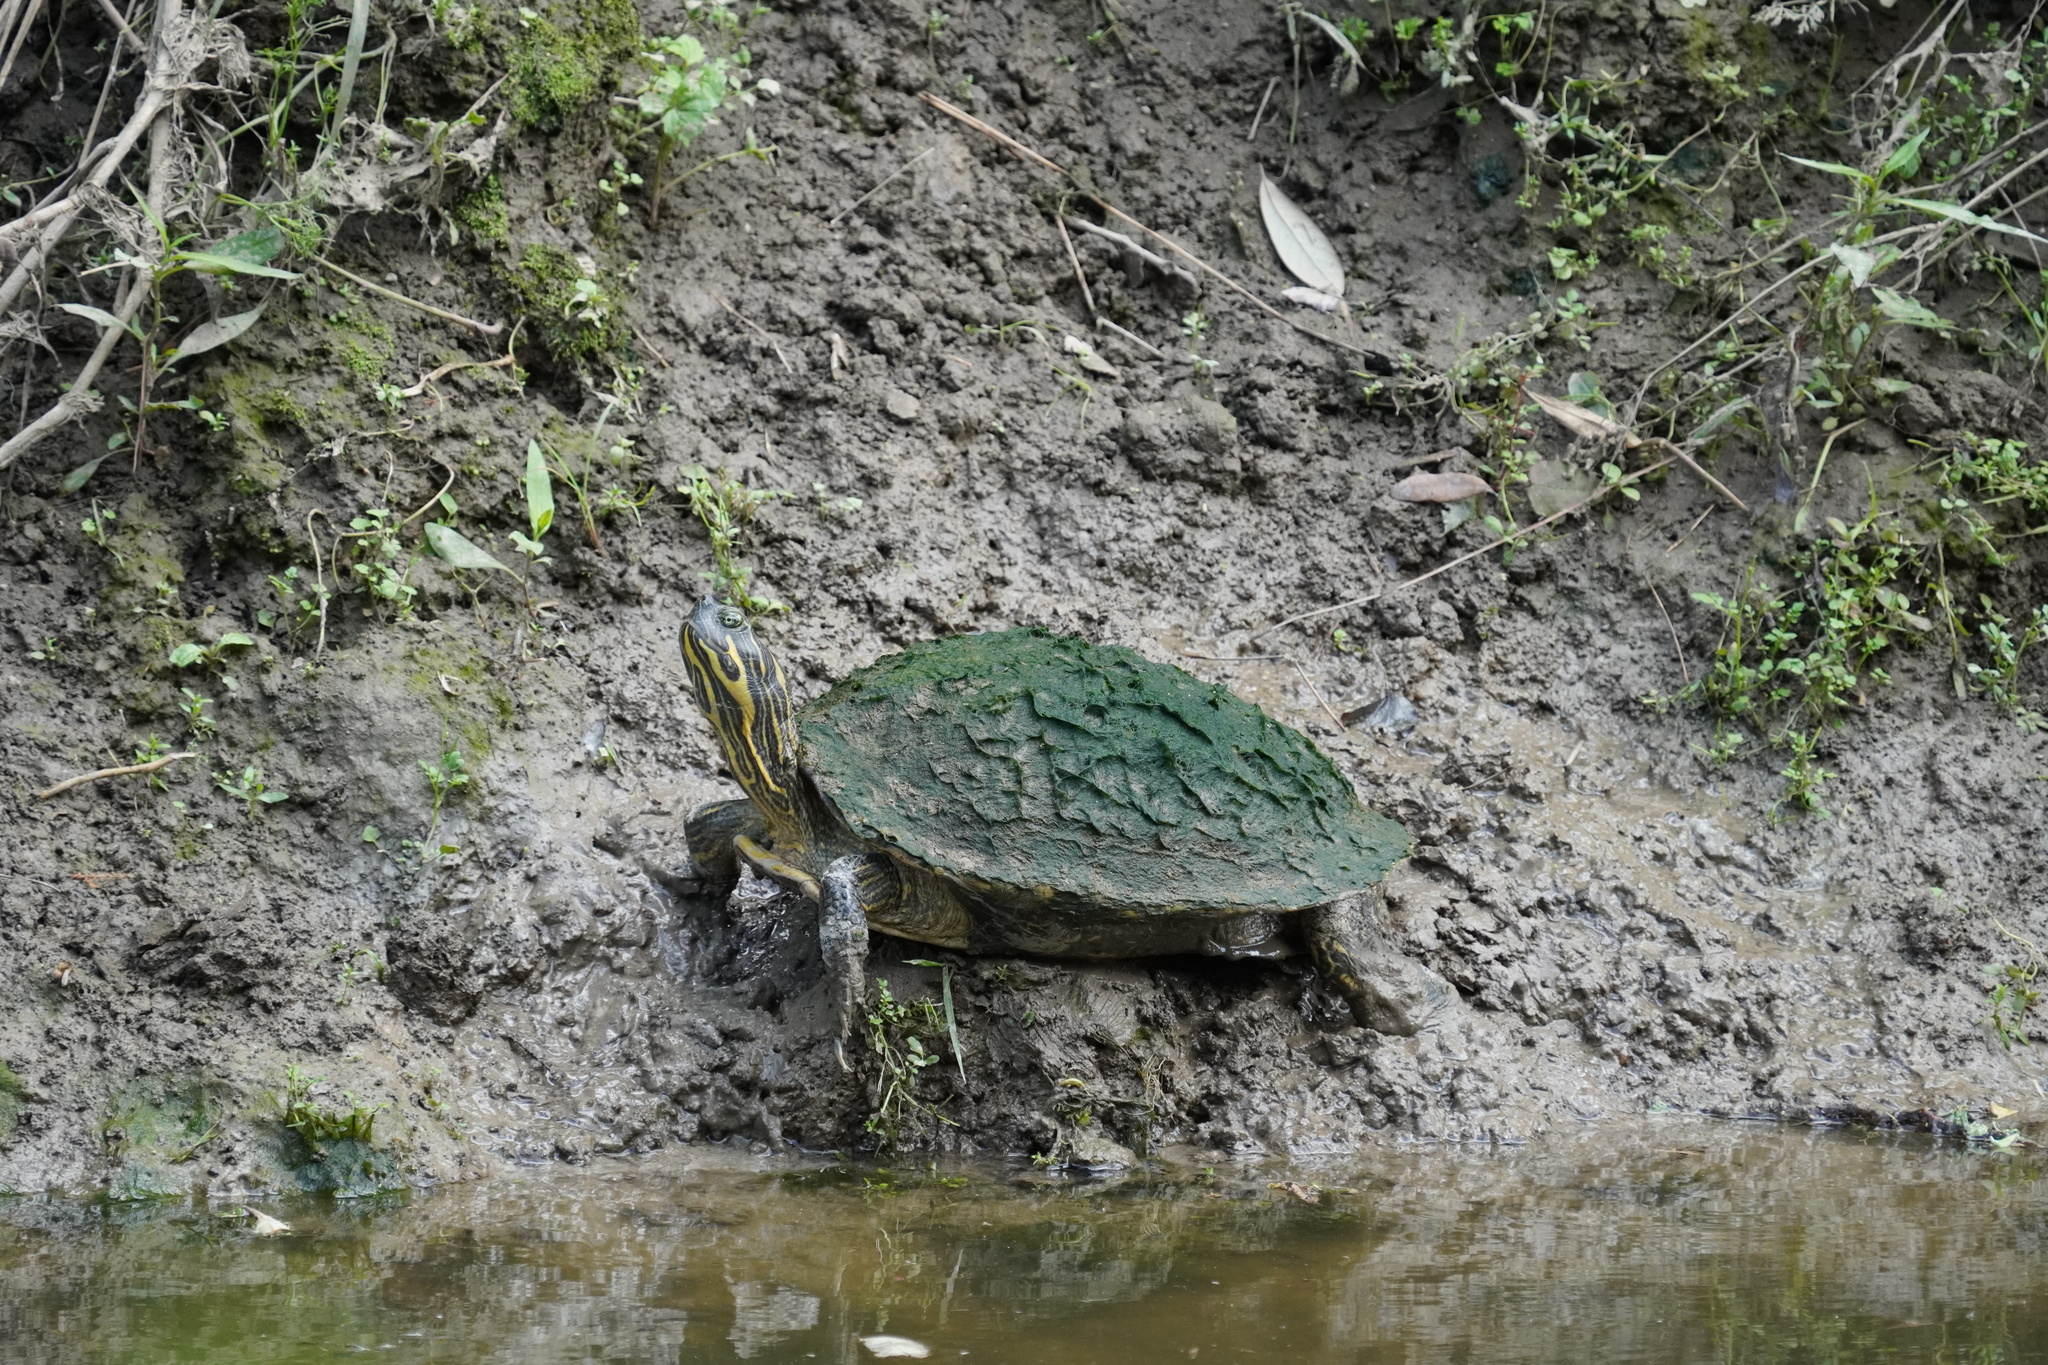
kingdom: Animalia
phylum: Chordata
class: Testudines
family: Emydidae
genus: Pseudemys
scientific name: Pseudemys concinna
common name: Eastern river cooter
